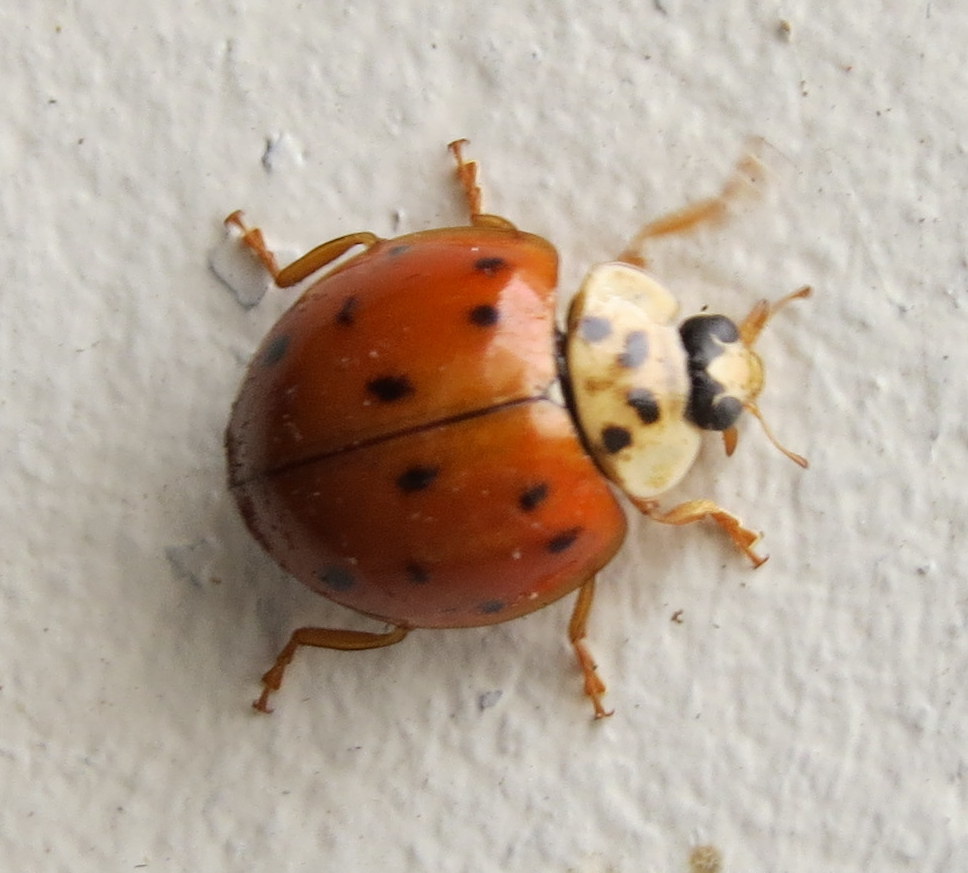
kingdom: Animalia
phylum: Arthropoda
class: Insecta
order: Coleoptera
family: Coccinellidae
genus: Harmonia
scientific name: Harmonia axyridis
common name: Harlequin ladybird
